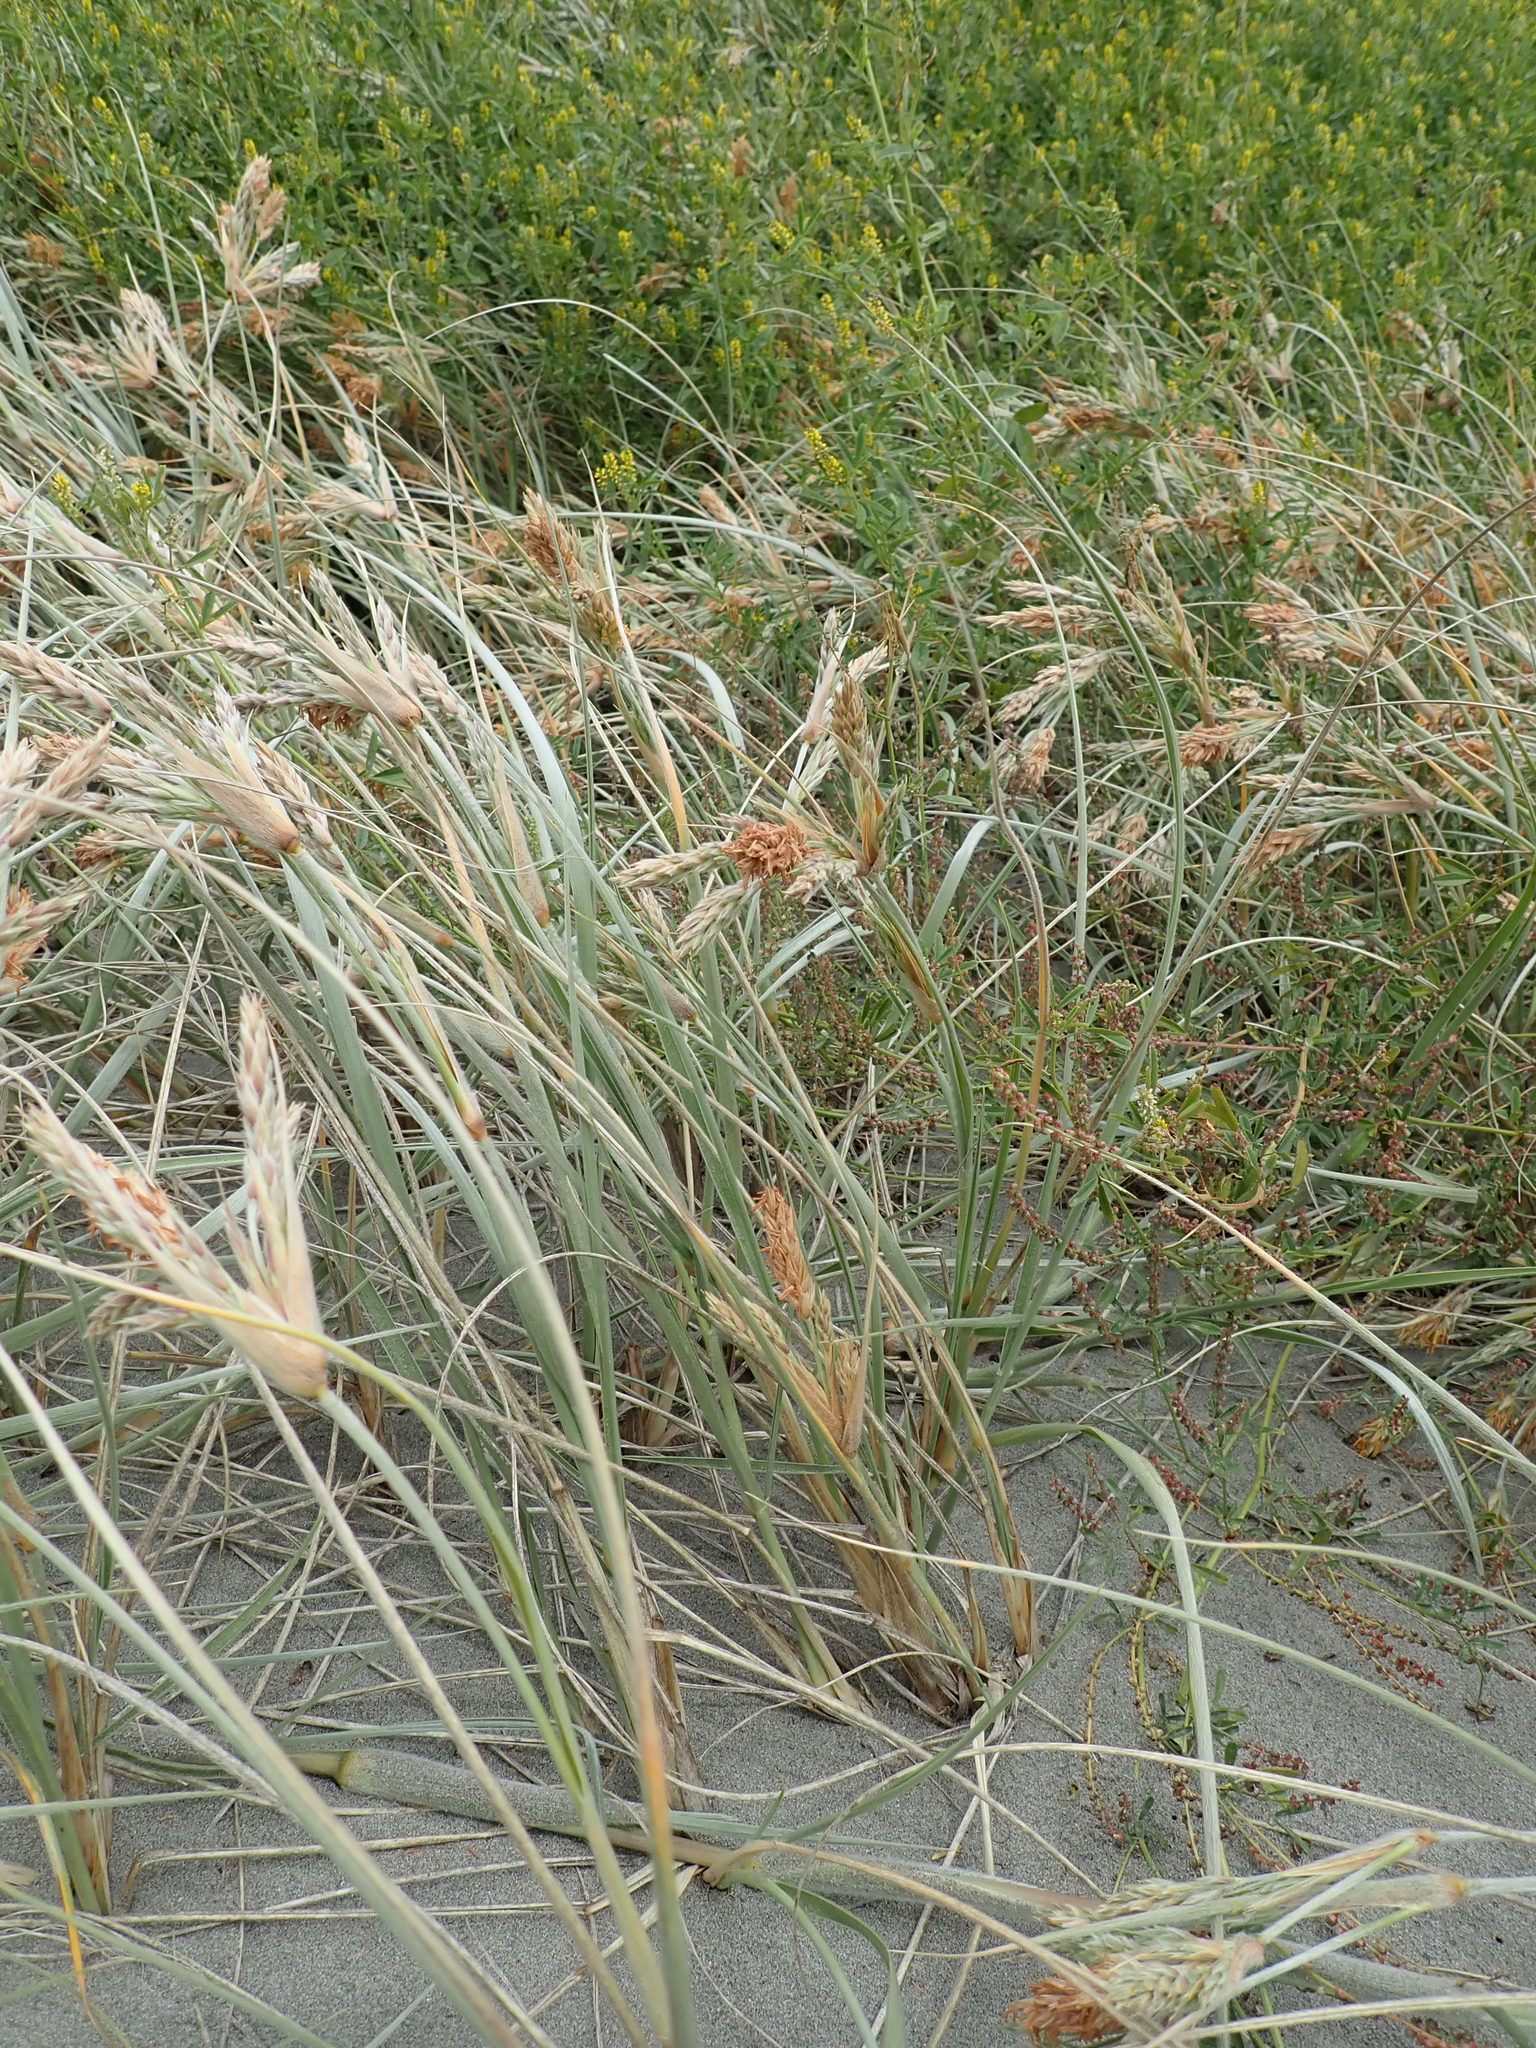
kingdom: Plantae
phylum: Tracheophyta
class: Liliopsida
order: Poales
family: Poaceae
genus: Spinifex
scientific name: Spinifex sericeus
